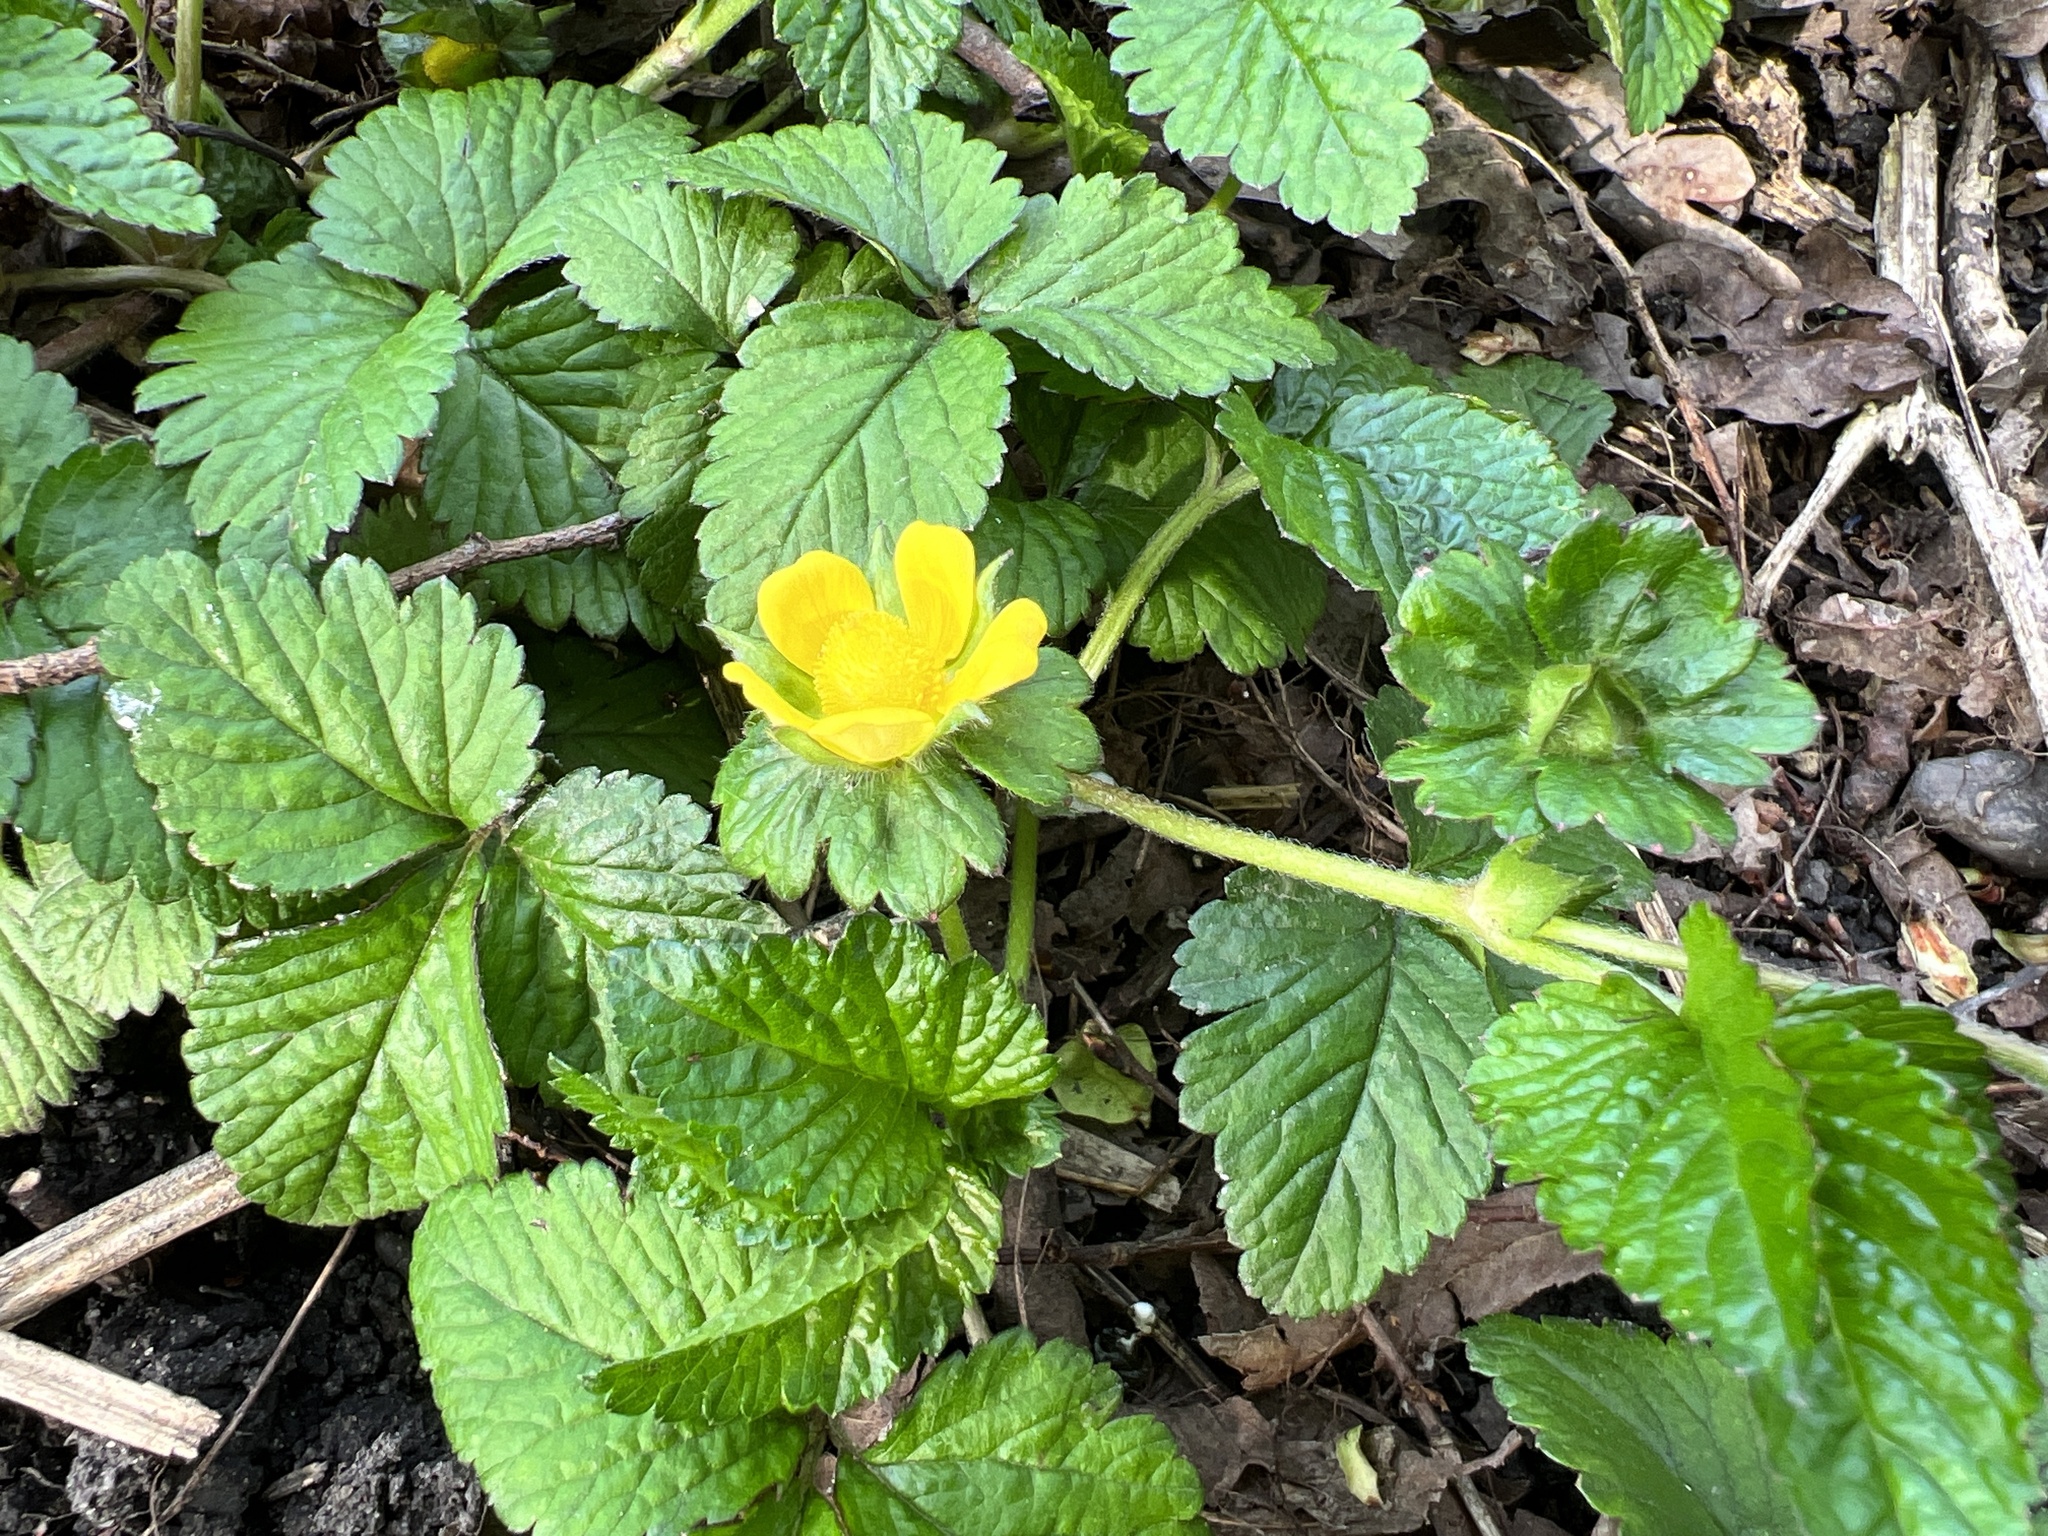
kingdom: Plantae
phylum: Tracheophyta
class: Magnoliopsida
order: Rosales
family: Rosaceae
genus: Potentilla
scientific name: Potentilla indica
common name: Yellow-flowered strawberry
